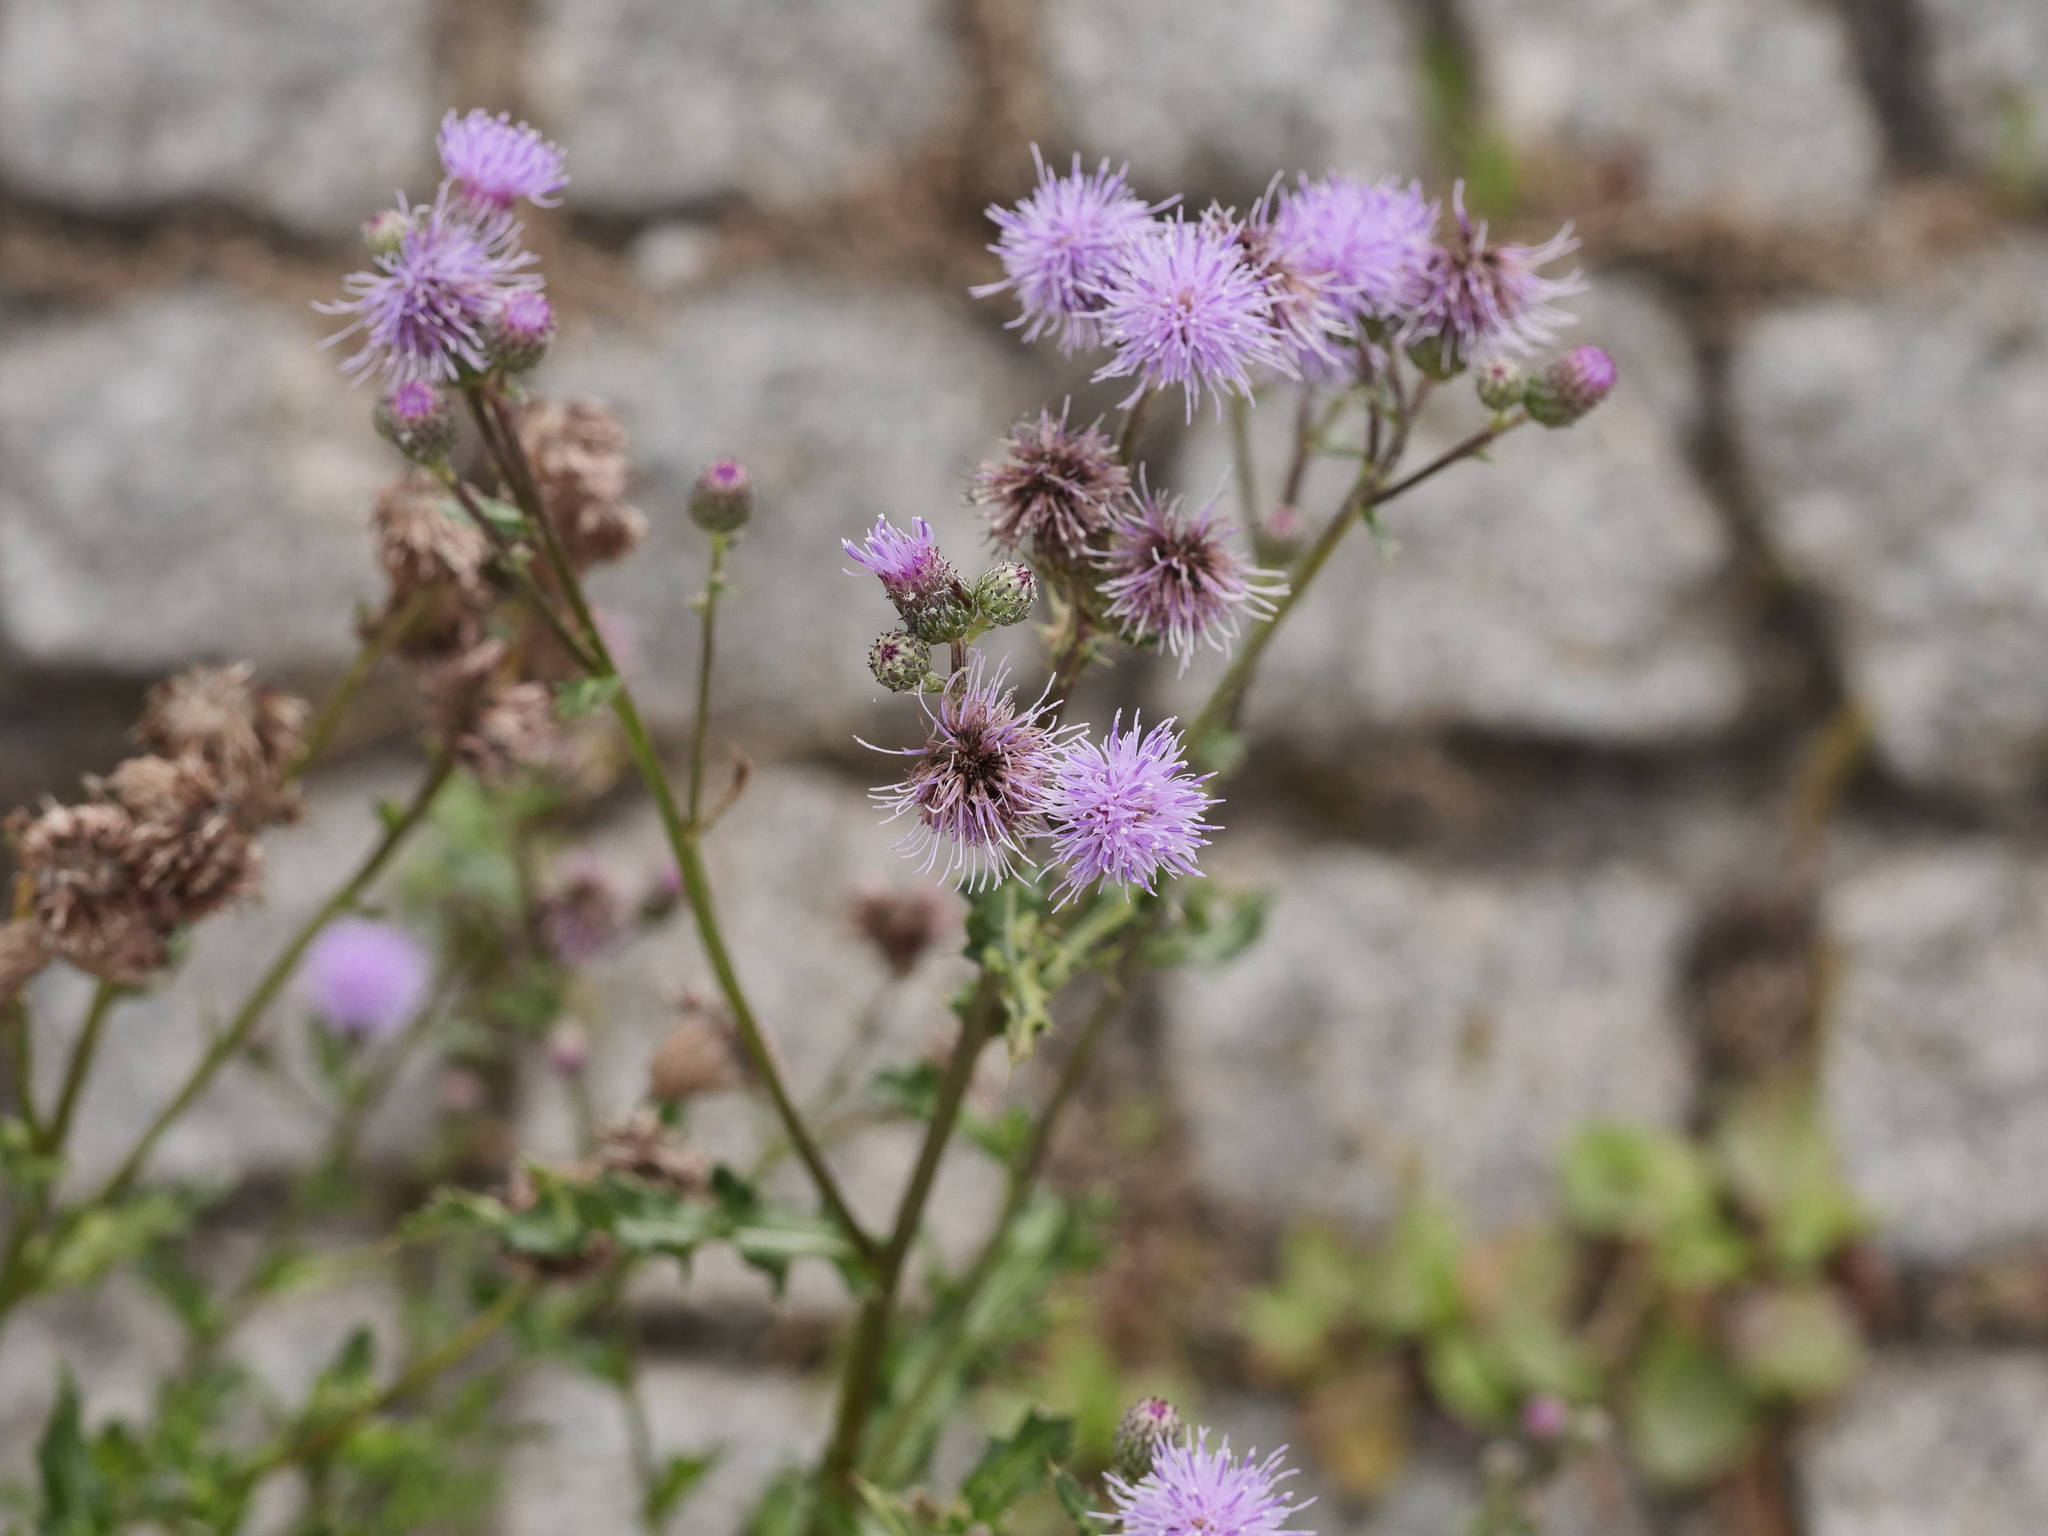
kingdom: Plantae
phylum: Tracheophyta
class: Magnoliopsida
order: Asterales
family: Asteraceae
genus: Cirsium
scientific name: Cirsium arvense
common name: Creeping thistle
